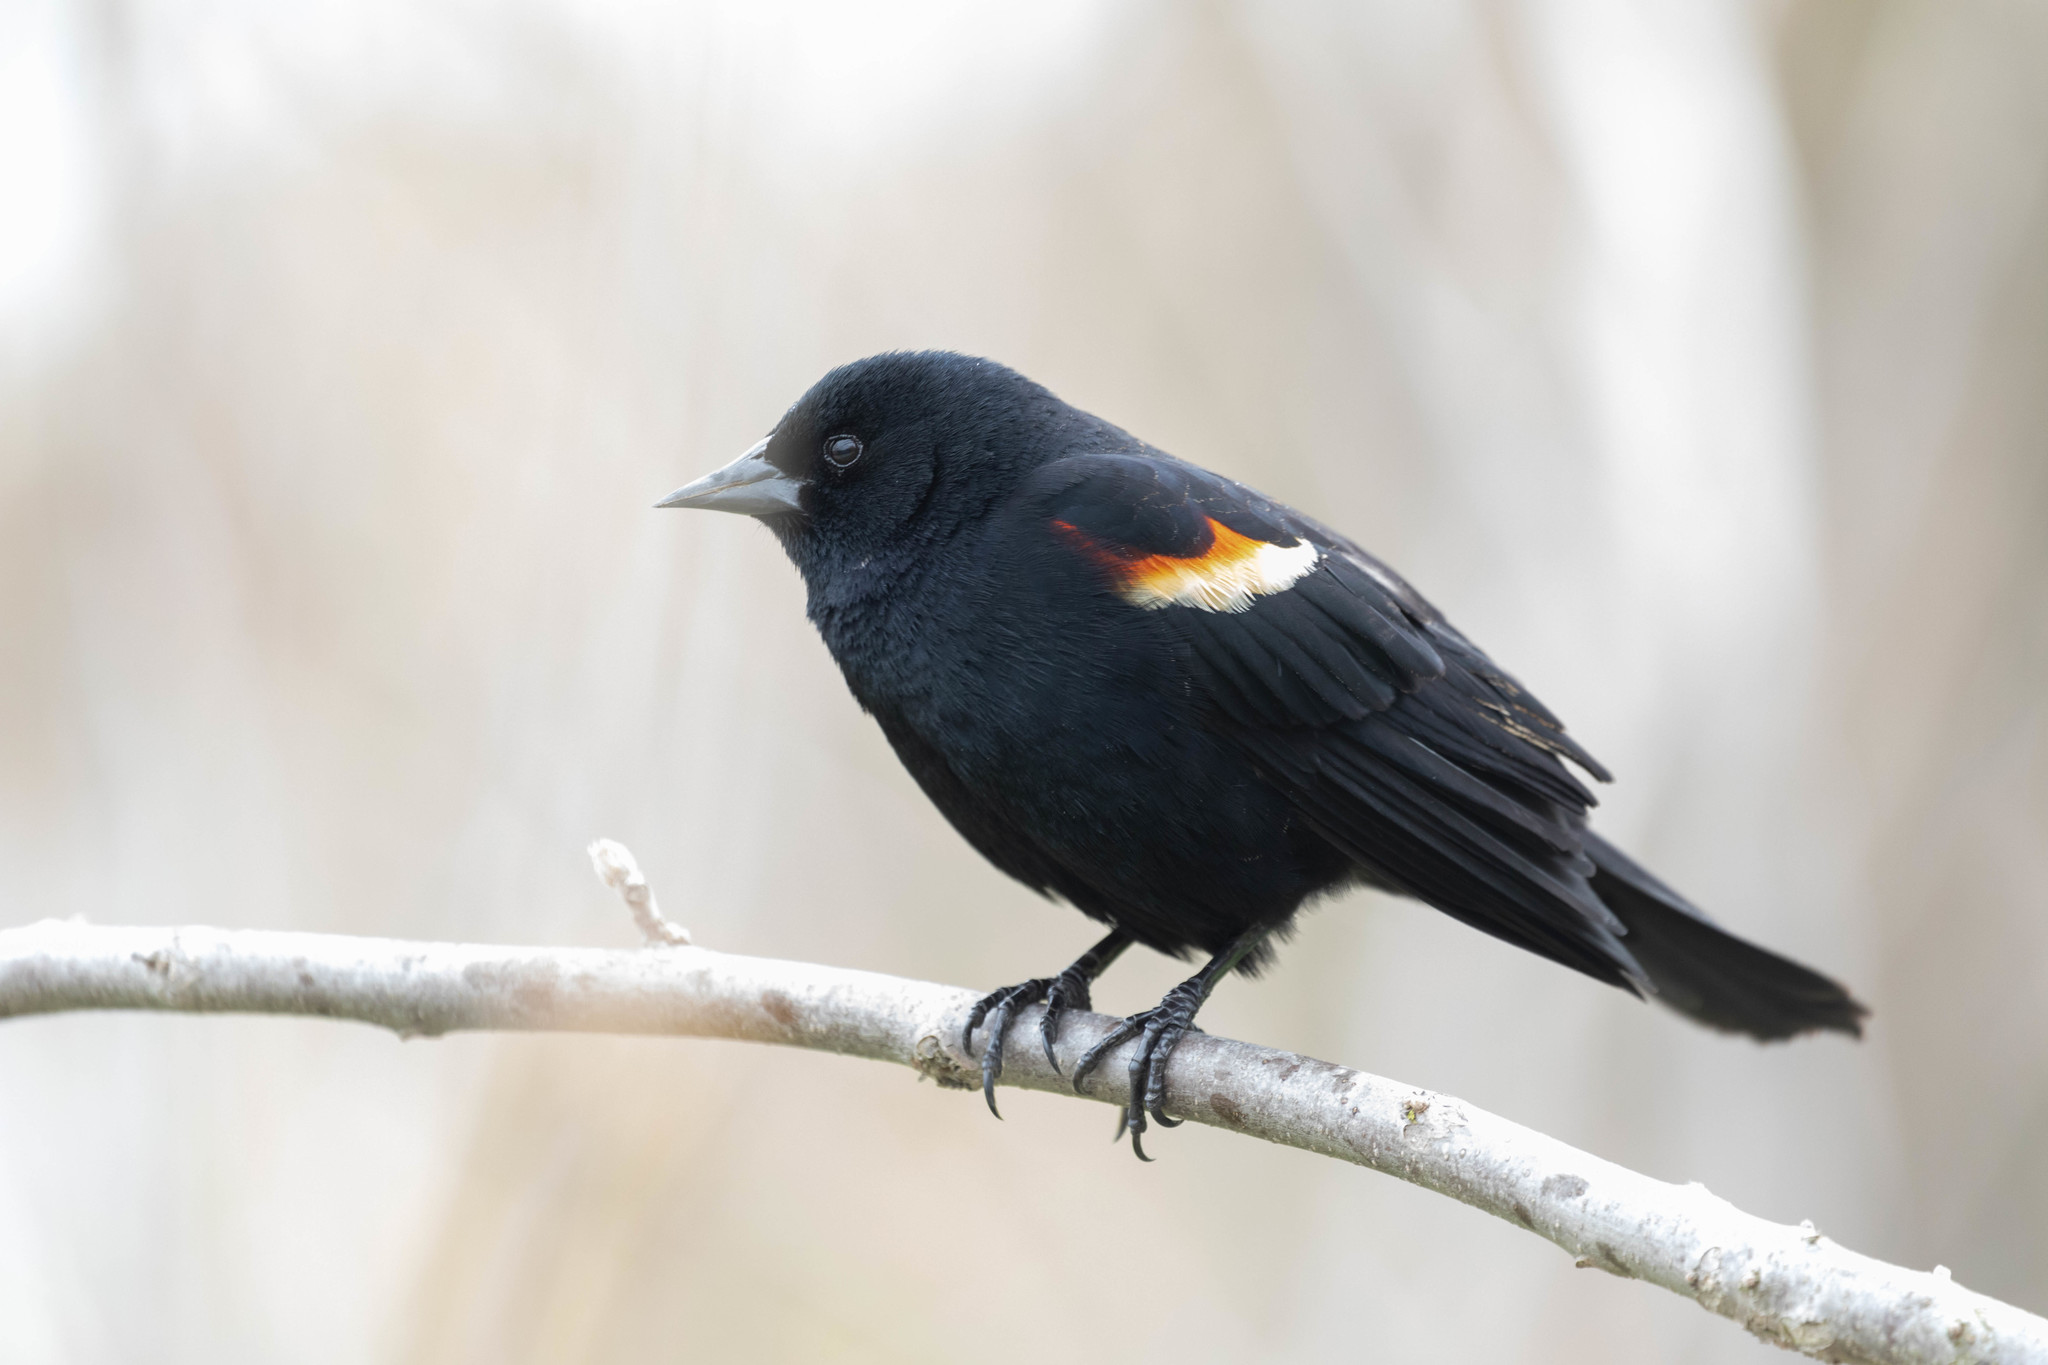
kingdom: Animalia
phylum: Chordata
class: Aves
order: Passeriformes
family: Icteridae
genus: Agelaius
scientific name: Agelaius phoeniceus
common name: Red-winged blackbird
